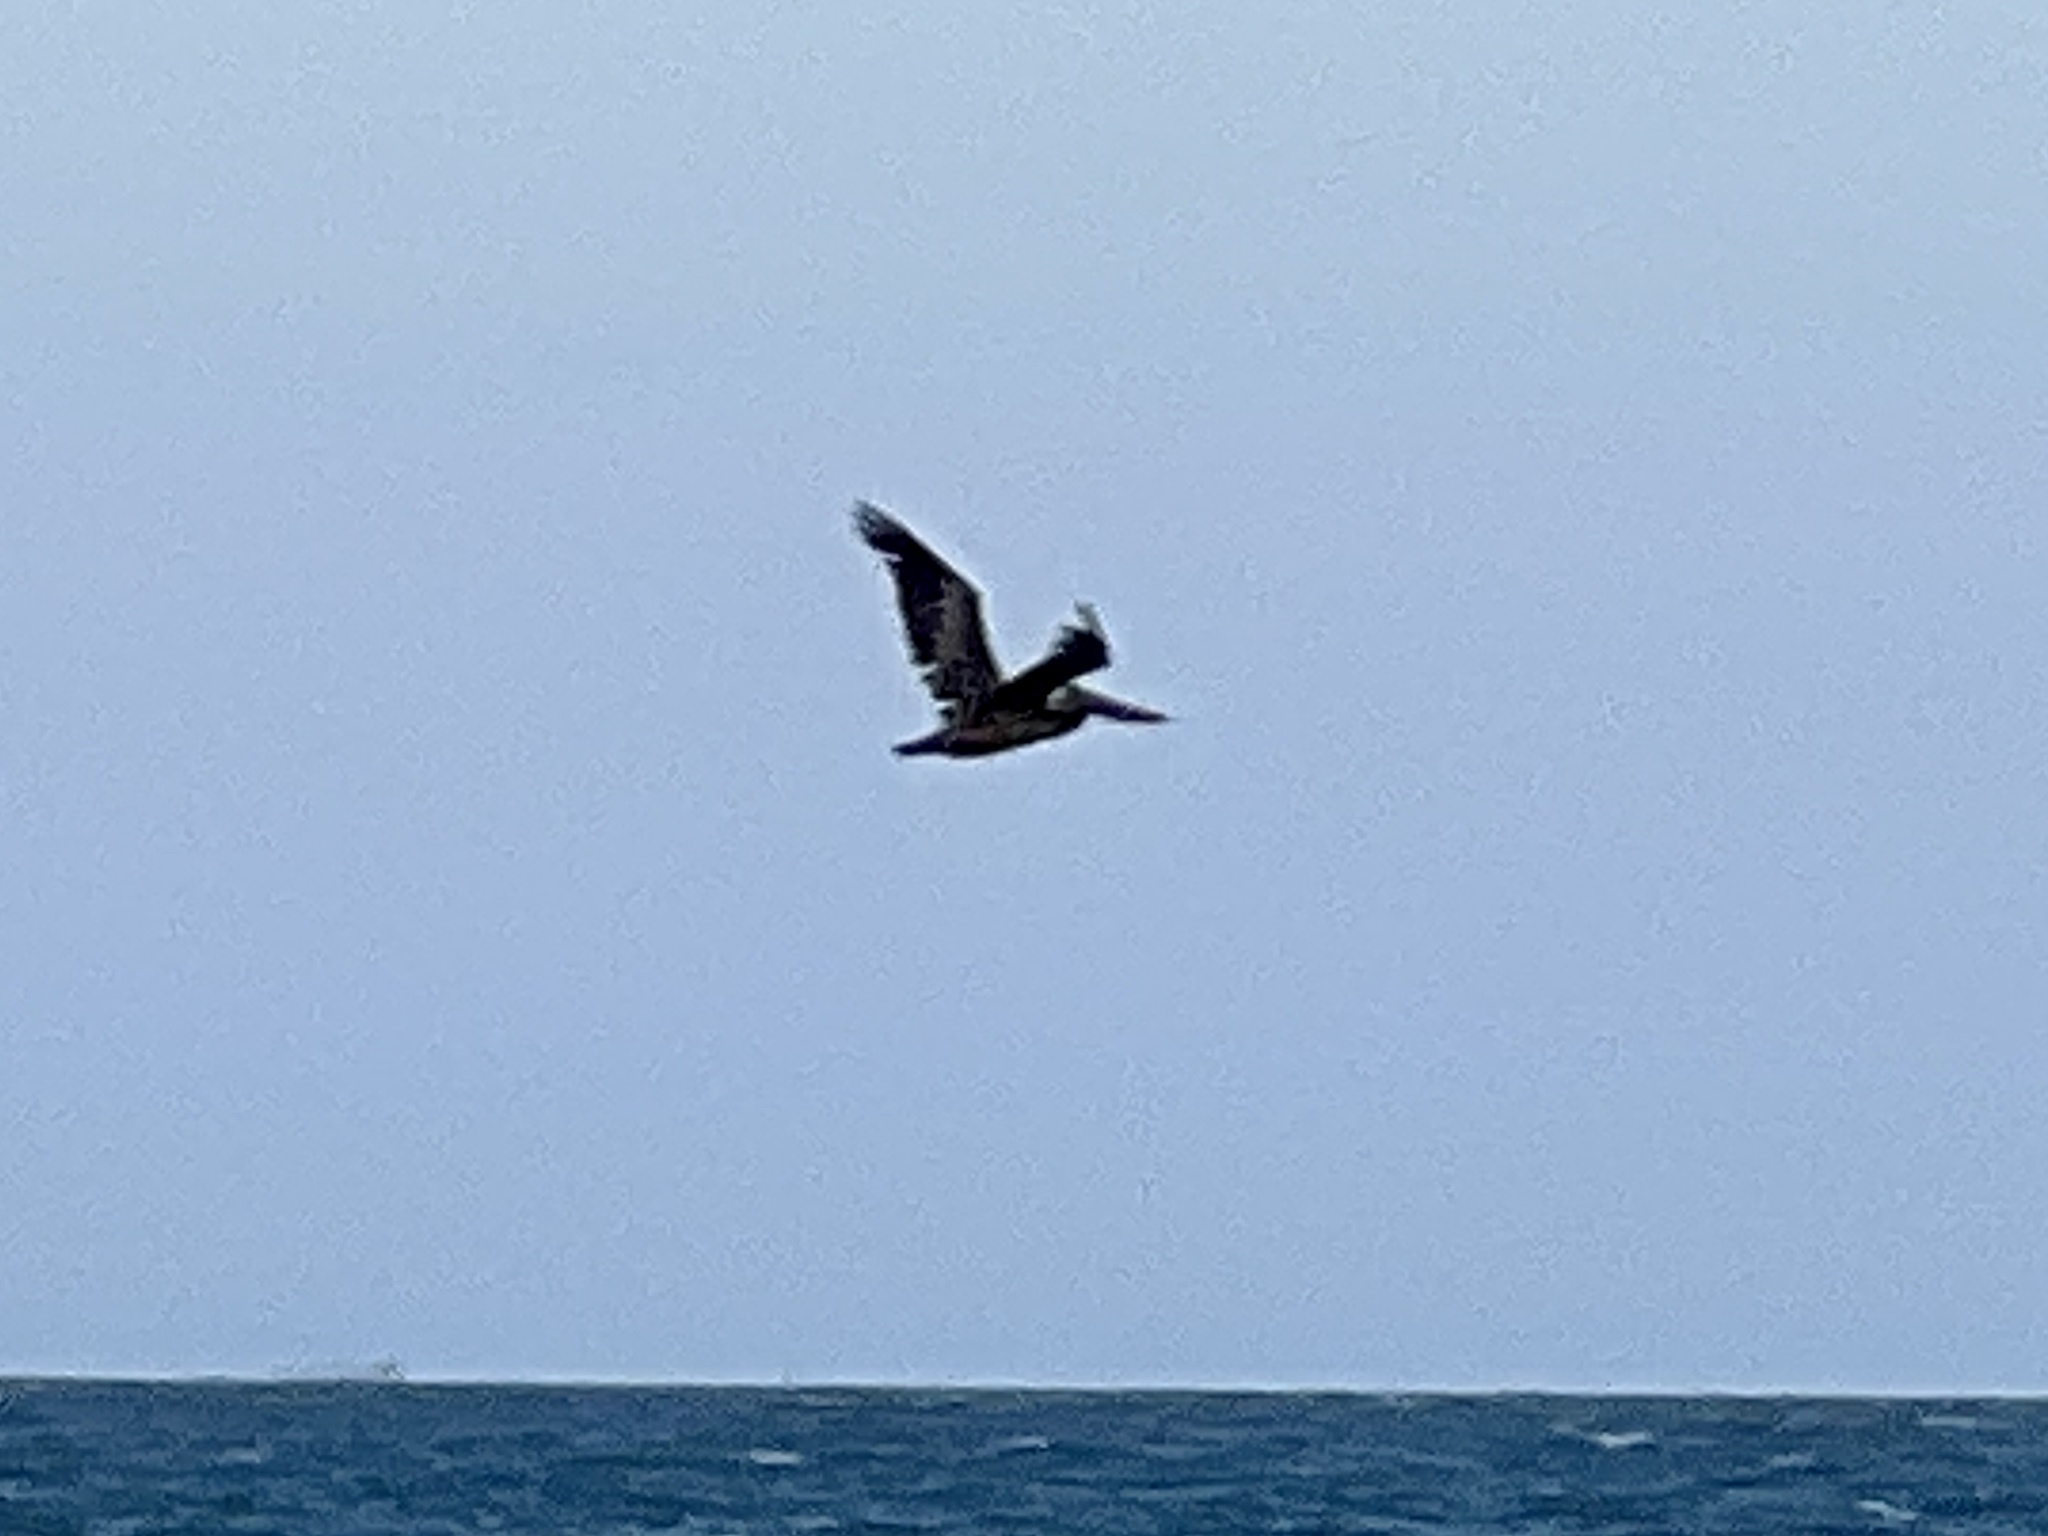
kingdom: Animalia
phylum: Chordata
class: Aves
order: Pelecaniformes
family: Pelecanidae
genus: Pelecanus
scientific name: Pelecanus occidentalis
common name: Brown pelican
